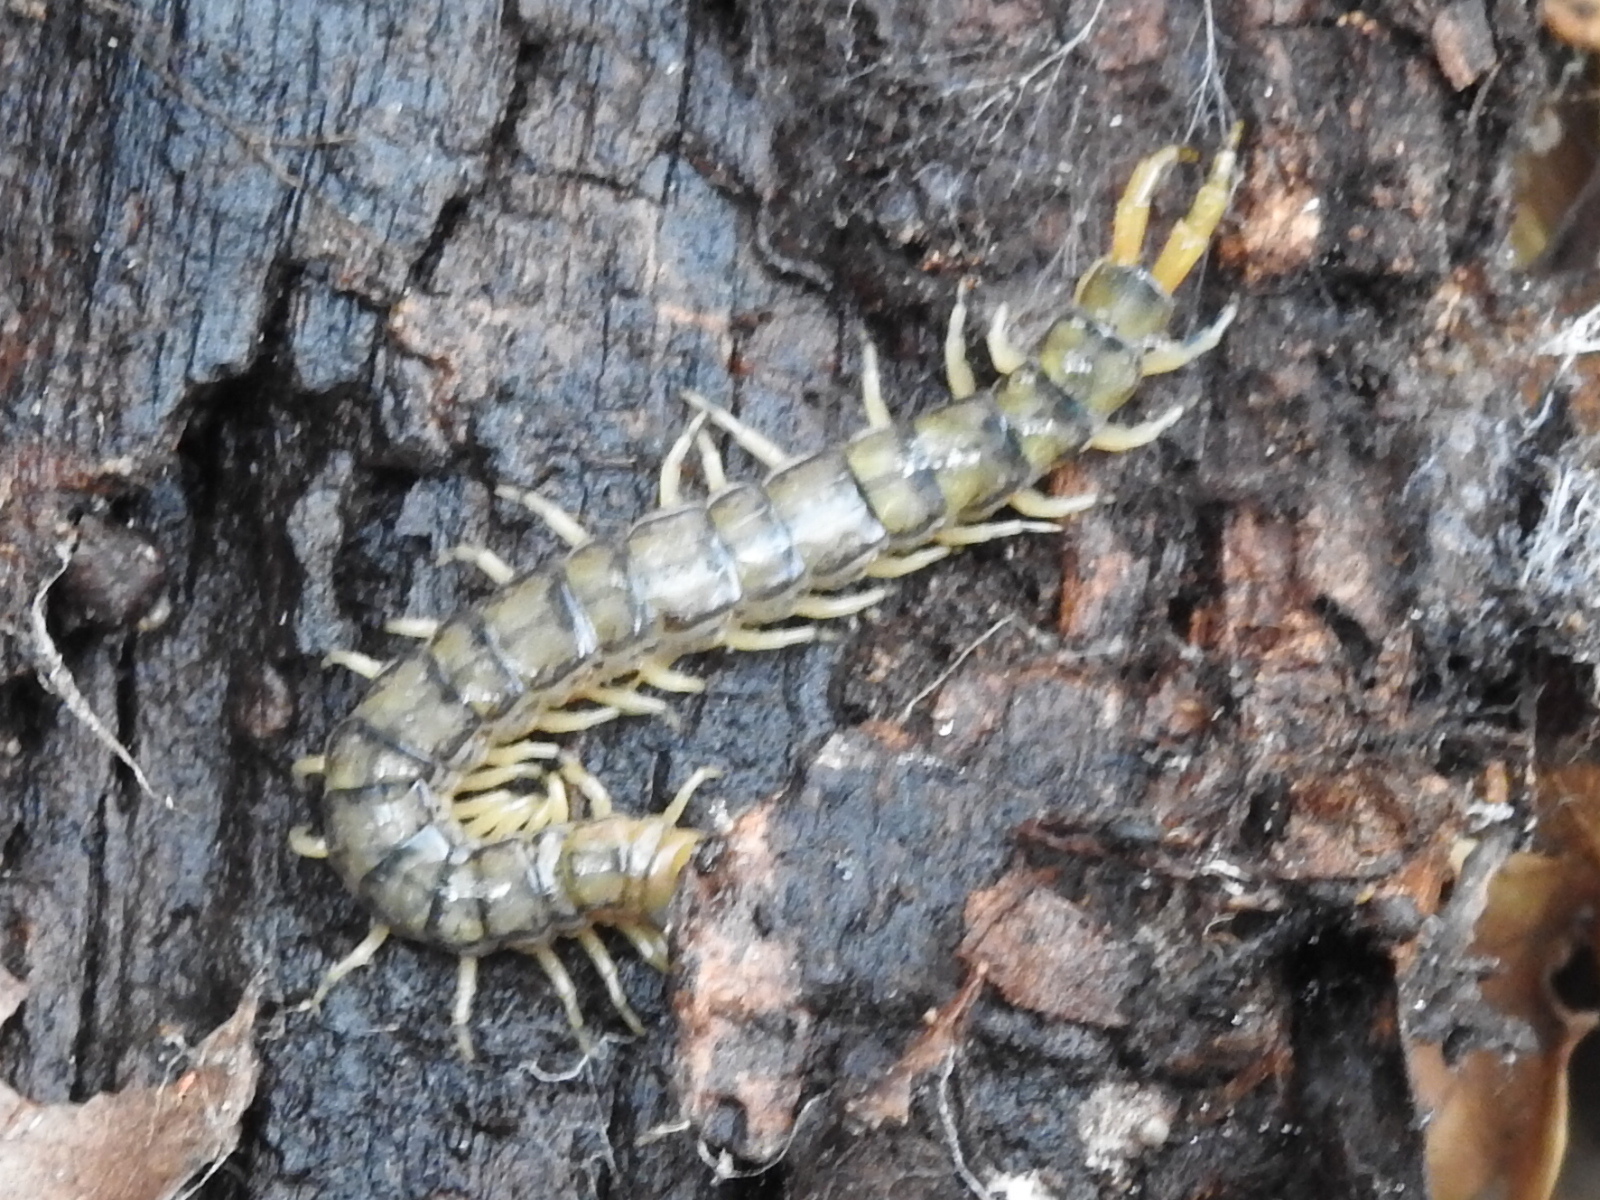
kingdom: Animalia
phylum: Arthropoda
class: Chilopoda
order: Scolopendromorpha
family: Scolopendridae
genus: Hemiscolopendra
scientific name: Hemiscolopendra marginata
